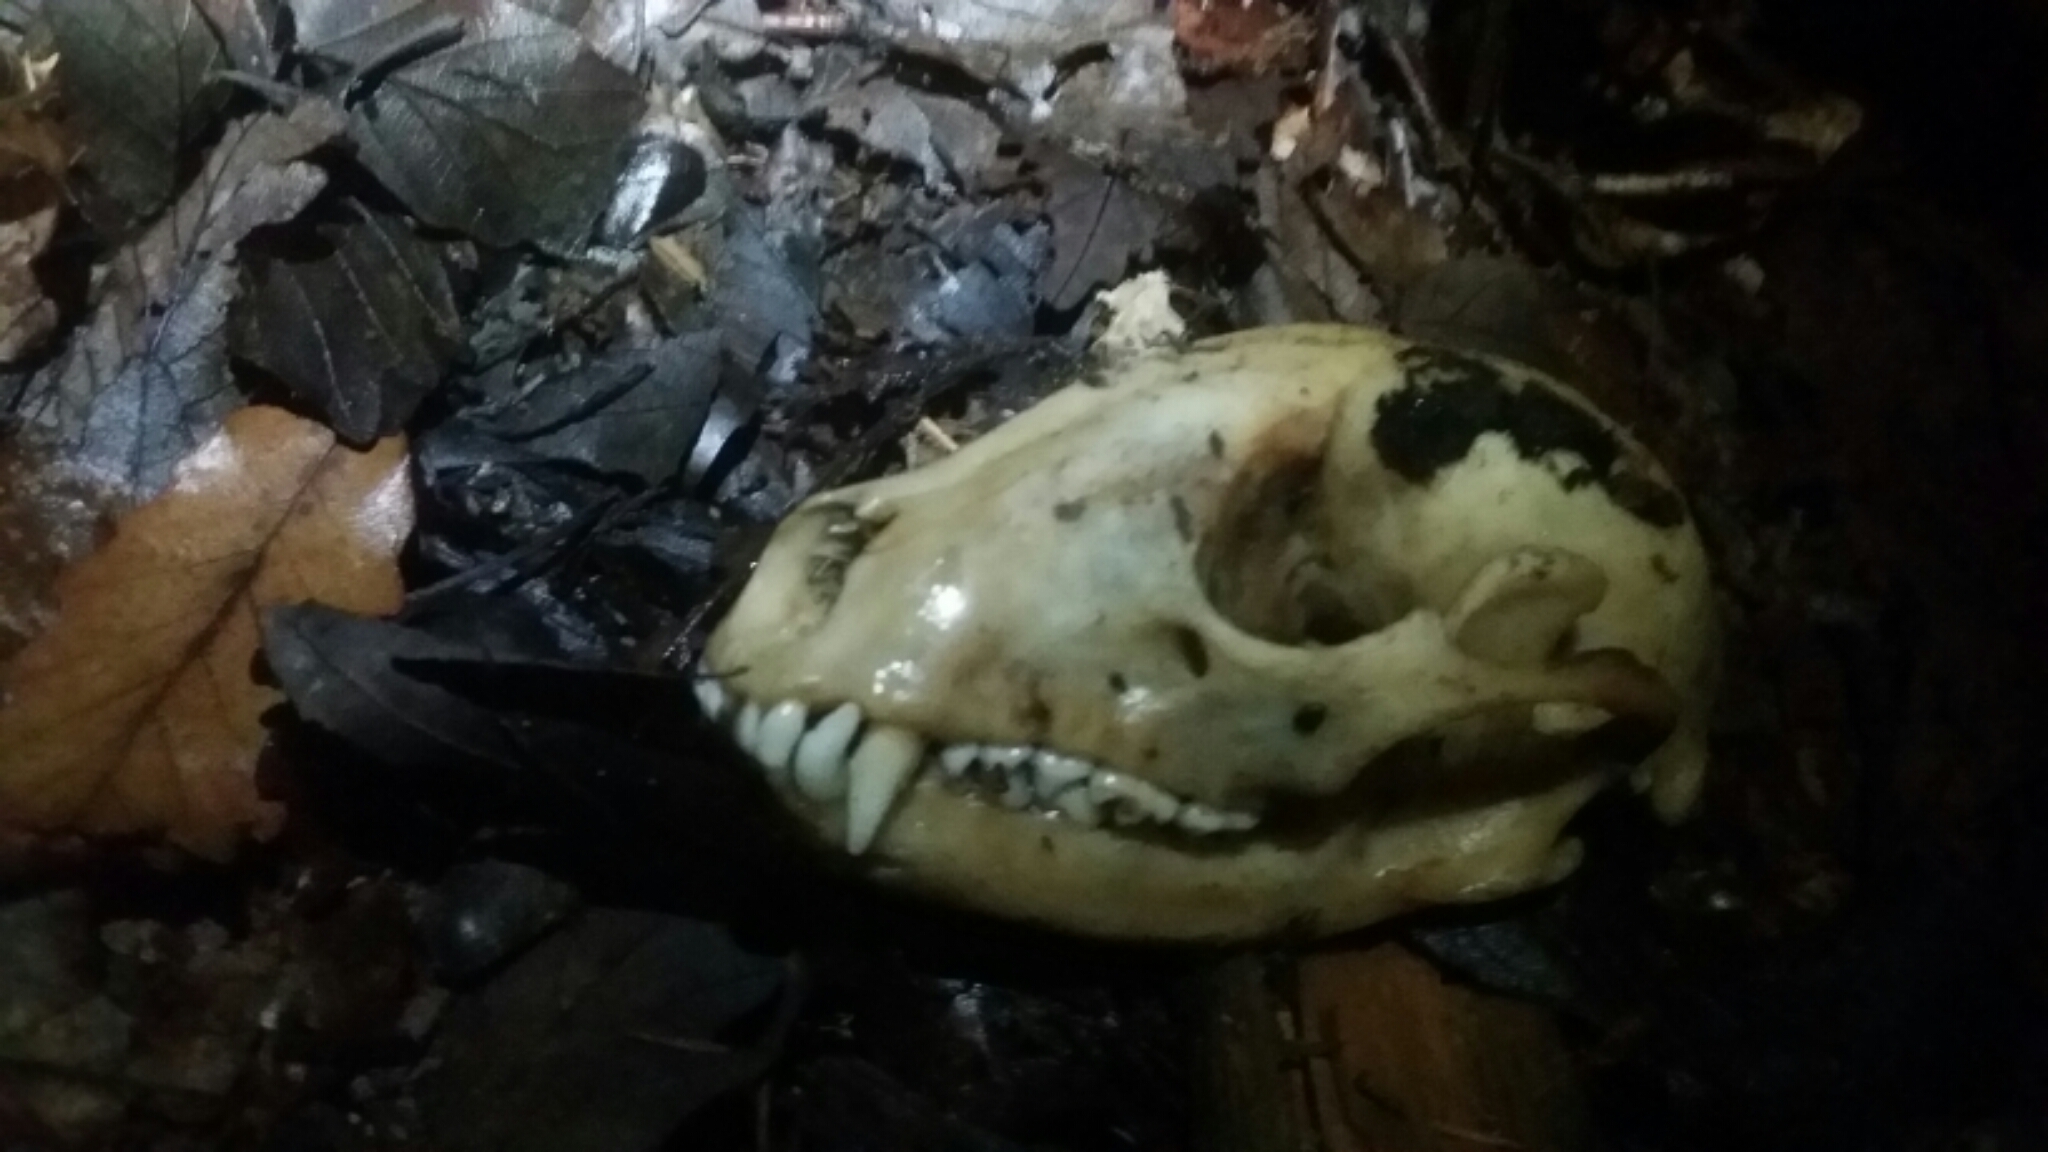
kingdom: Animalia
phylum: Chordata
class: Mammalia
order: Carnivora
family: Procyonidae
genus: Procyon
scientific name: Procyon lotor
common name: Raccoon
